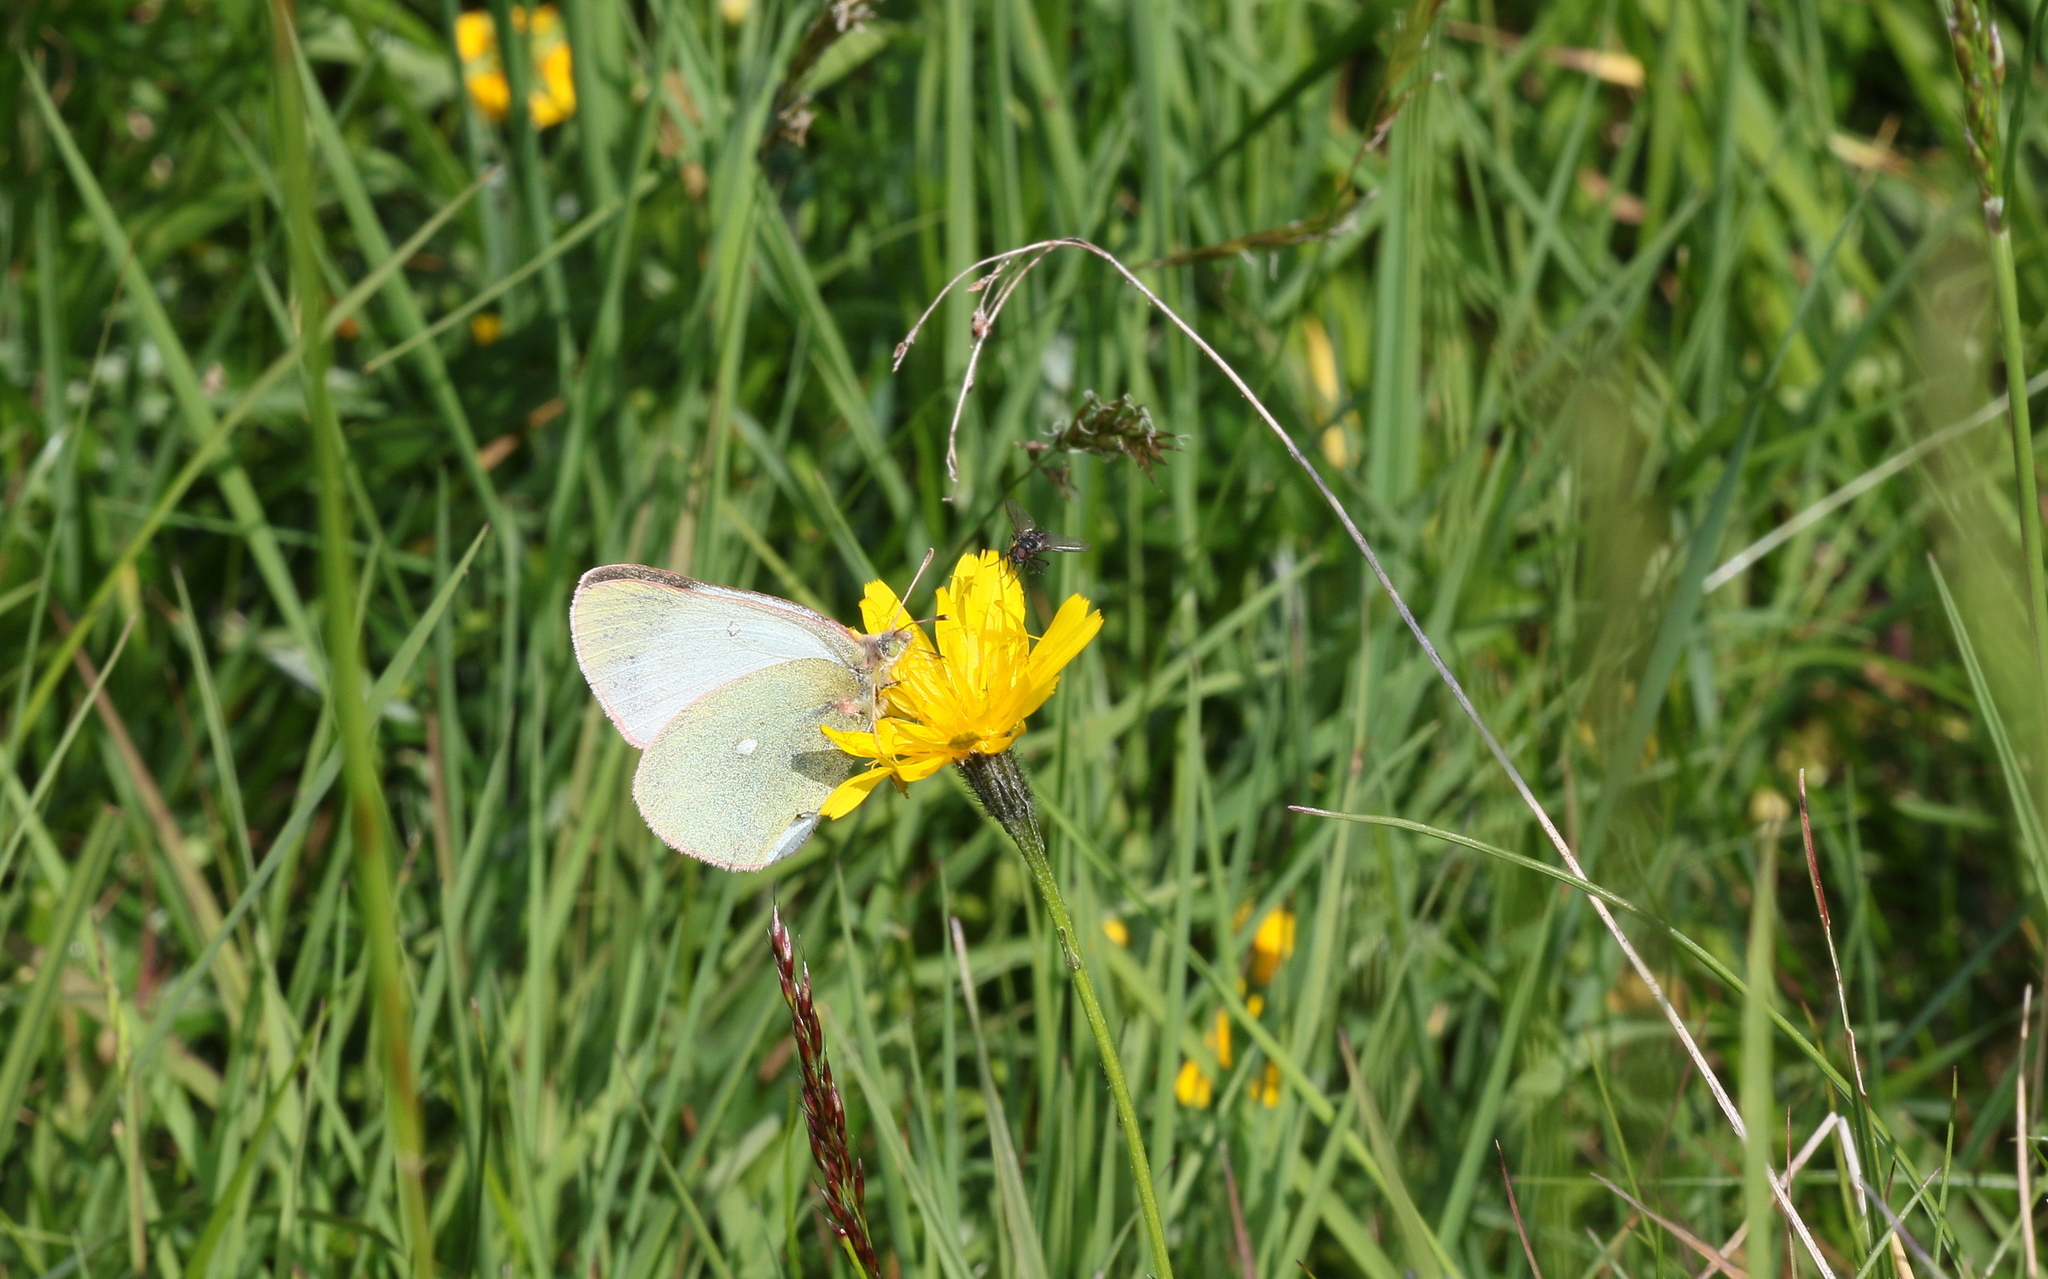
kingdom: Animalia
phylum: Arthropoda
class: Insecta
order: Lepidoptera
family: Pieridae
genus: Colias
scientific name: Colias palaeno
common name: Moorland clouded yellow
